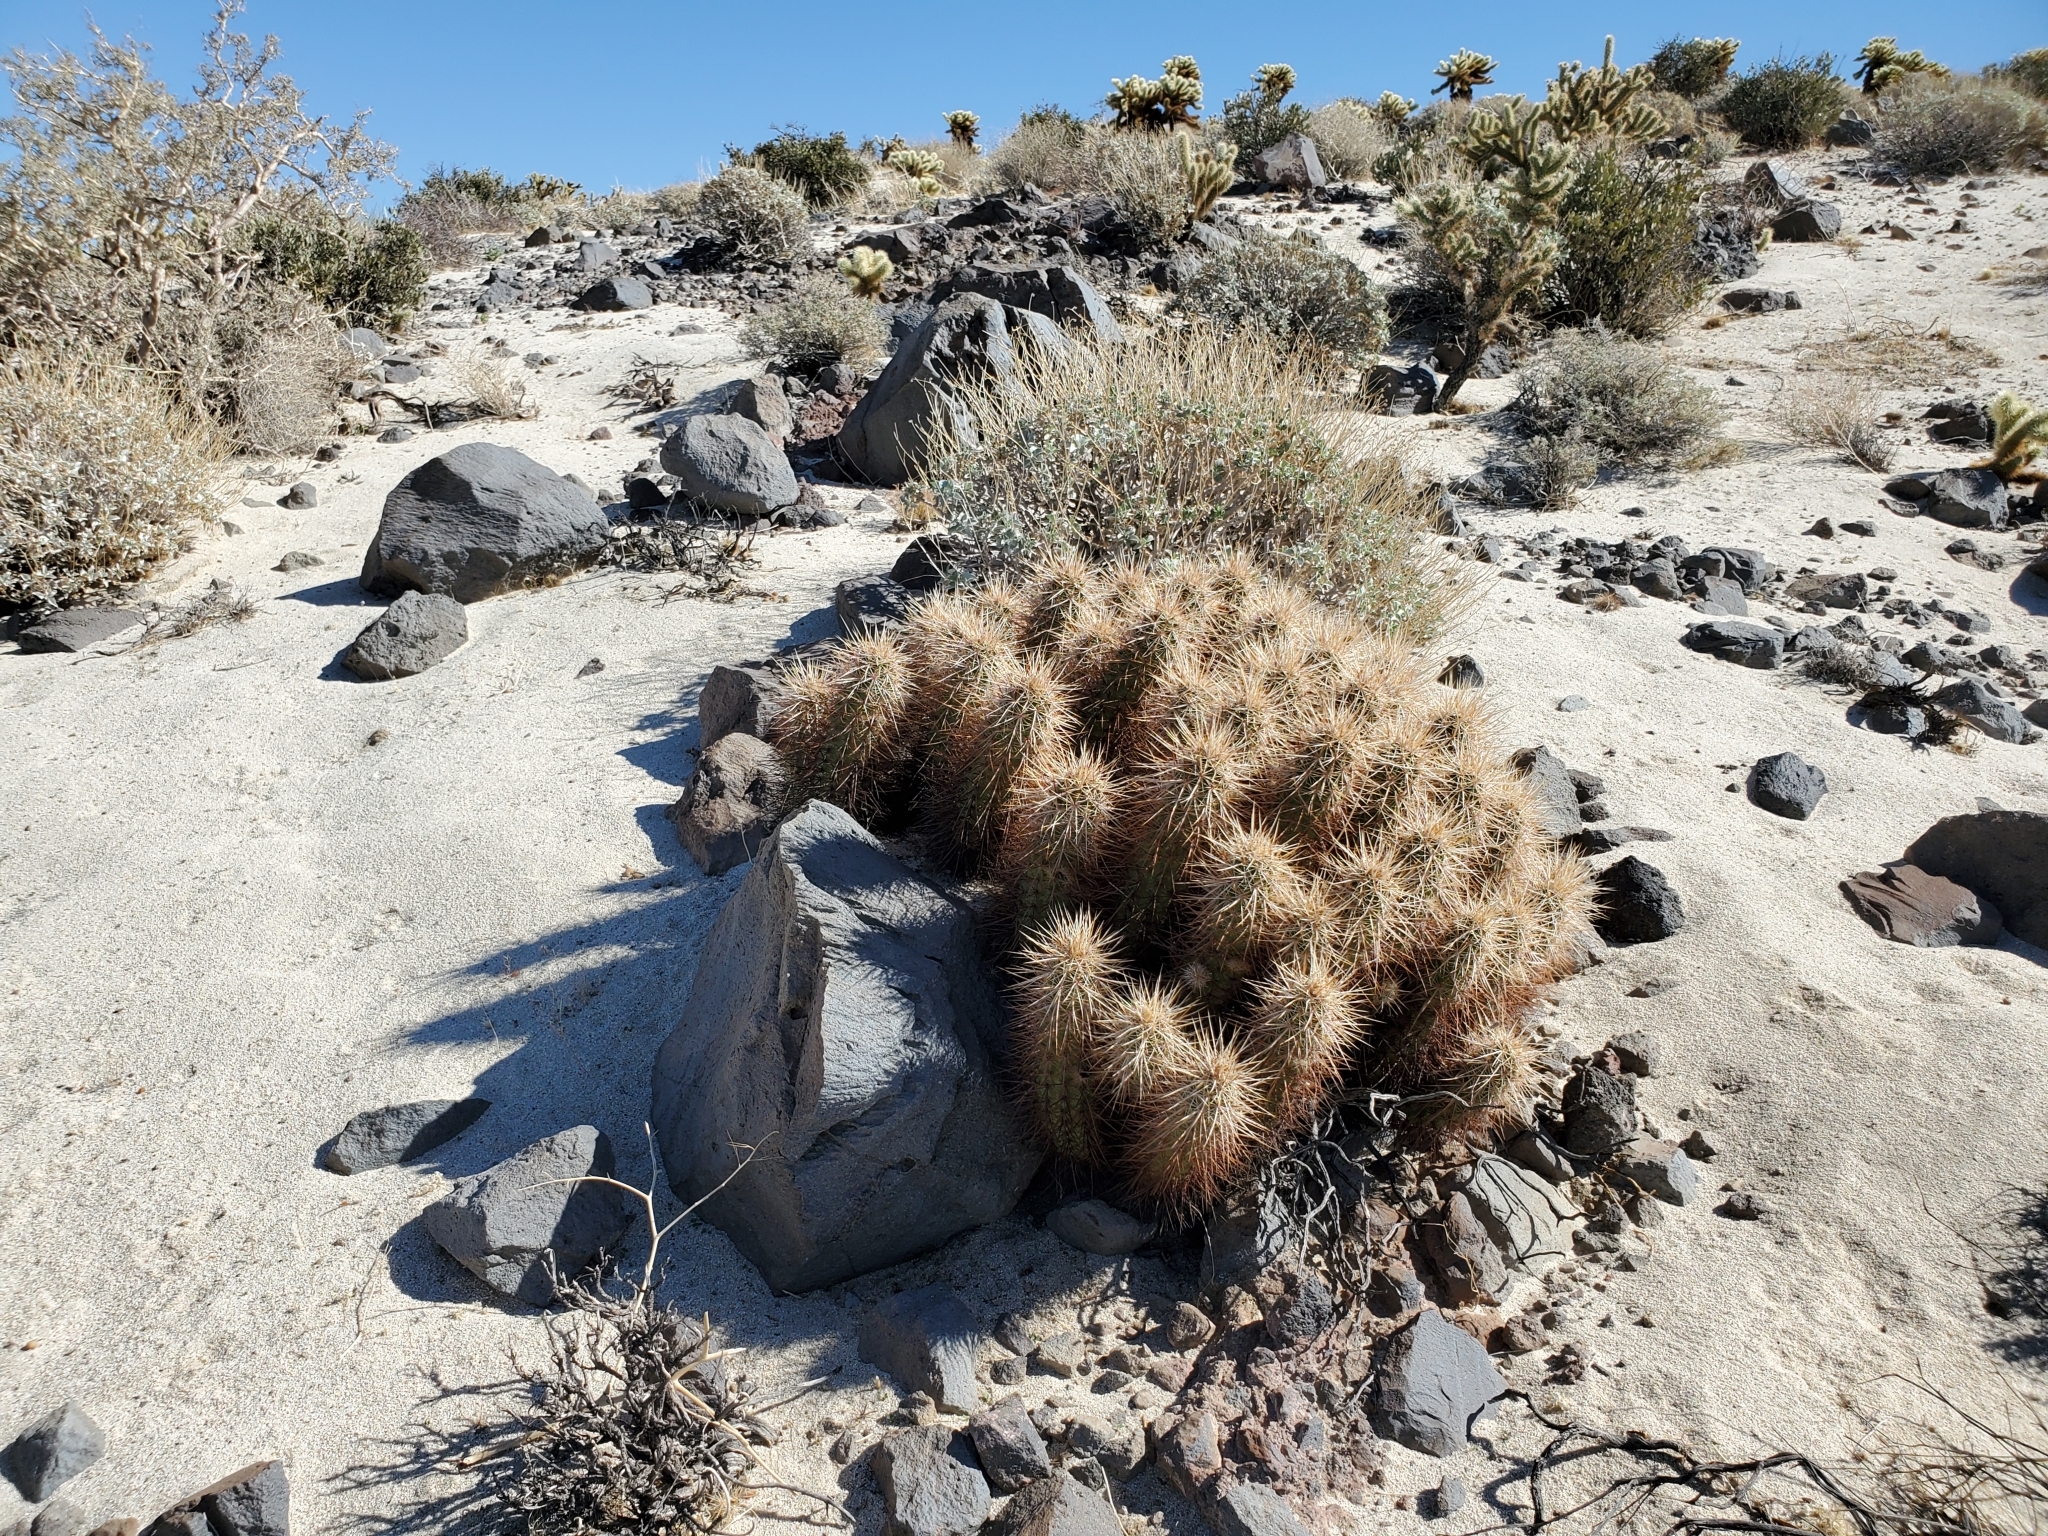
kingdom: Plantae
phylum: Tracheophyta
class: Magnoliopsida
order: Caryophyllales
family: Cactaceae
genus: Echinocereus
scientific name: Echinocereus engelmannii
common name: Engelmann's hedgehog cactus
